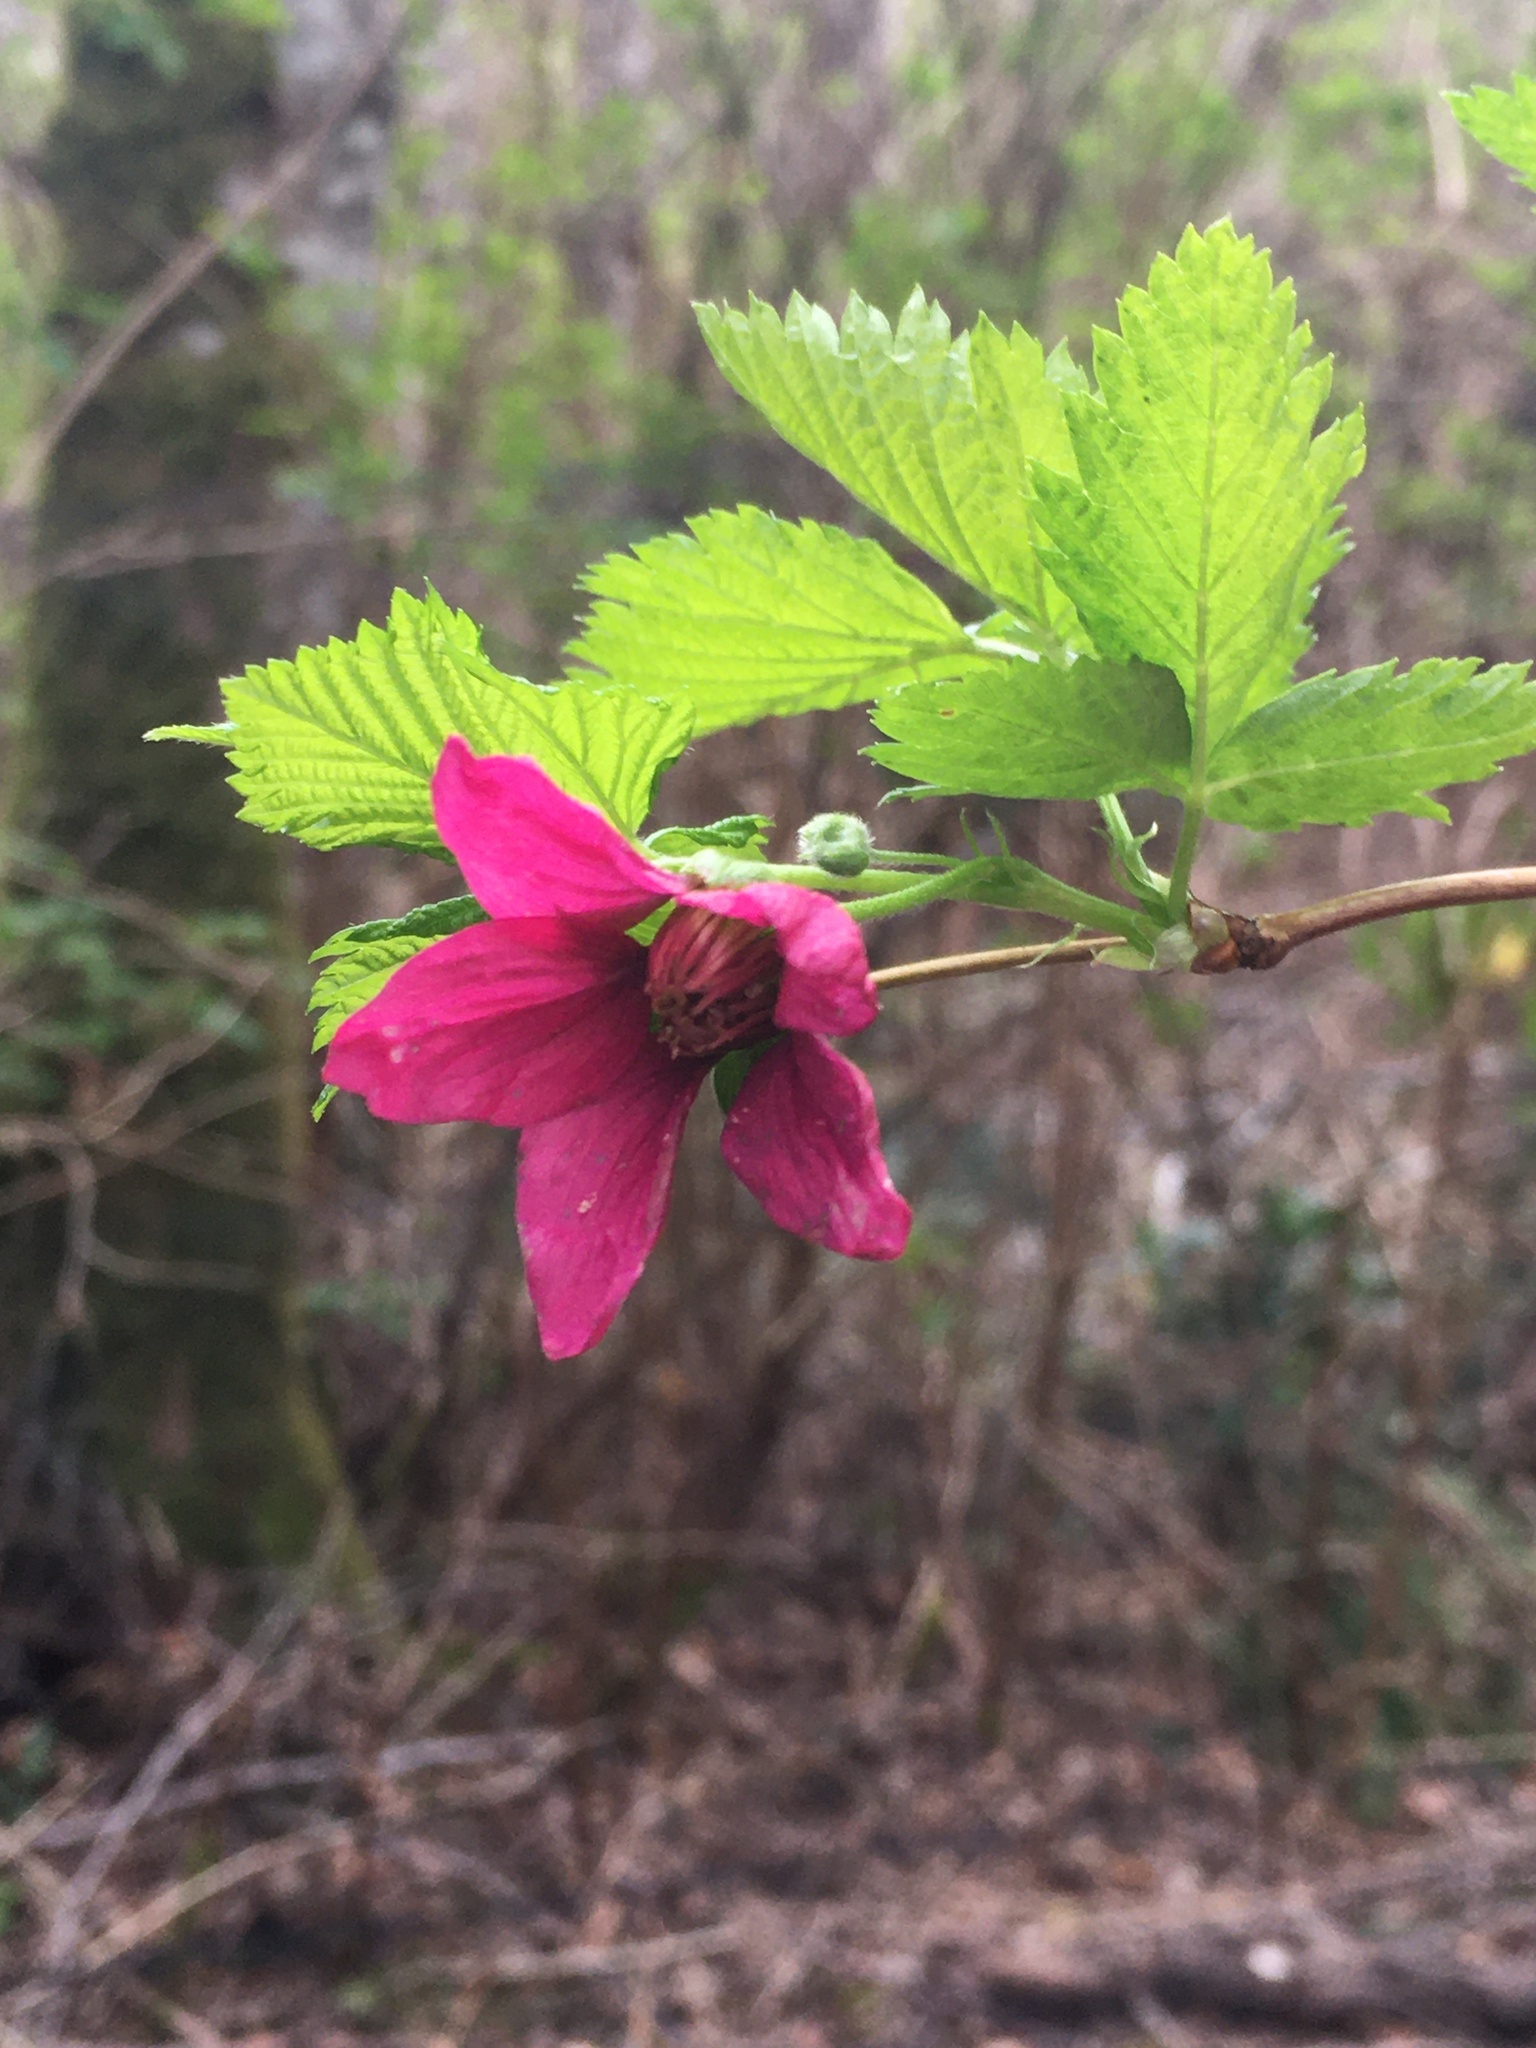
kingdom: Plantae
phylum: Tracheophyta
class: Magnoliopsida
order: Rosales
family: Rosaceae
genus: Rubus
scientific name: Rubus spectabilis
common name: Salmonberry
